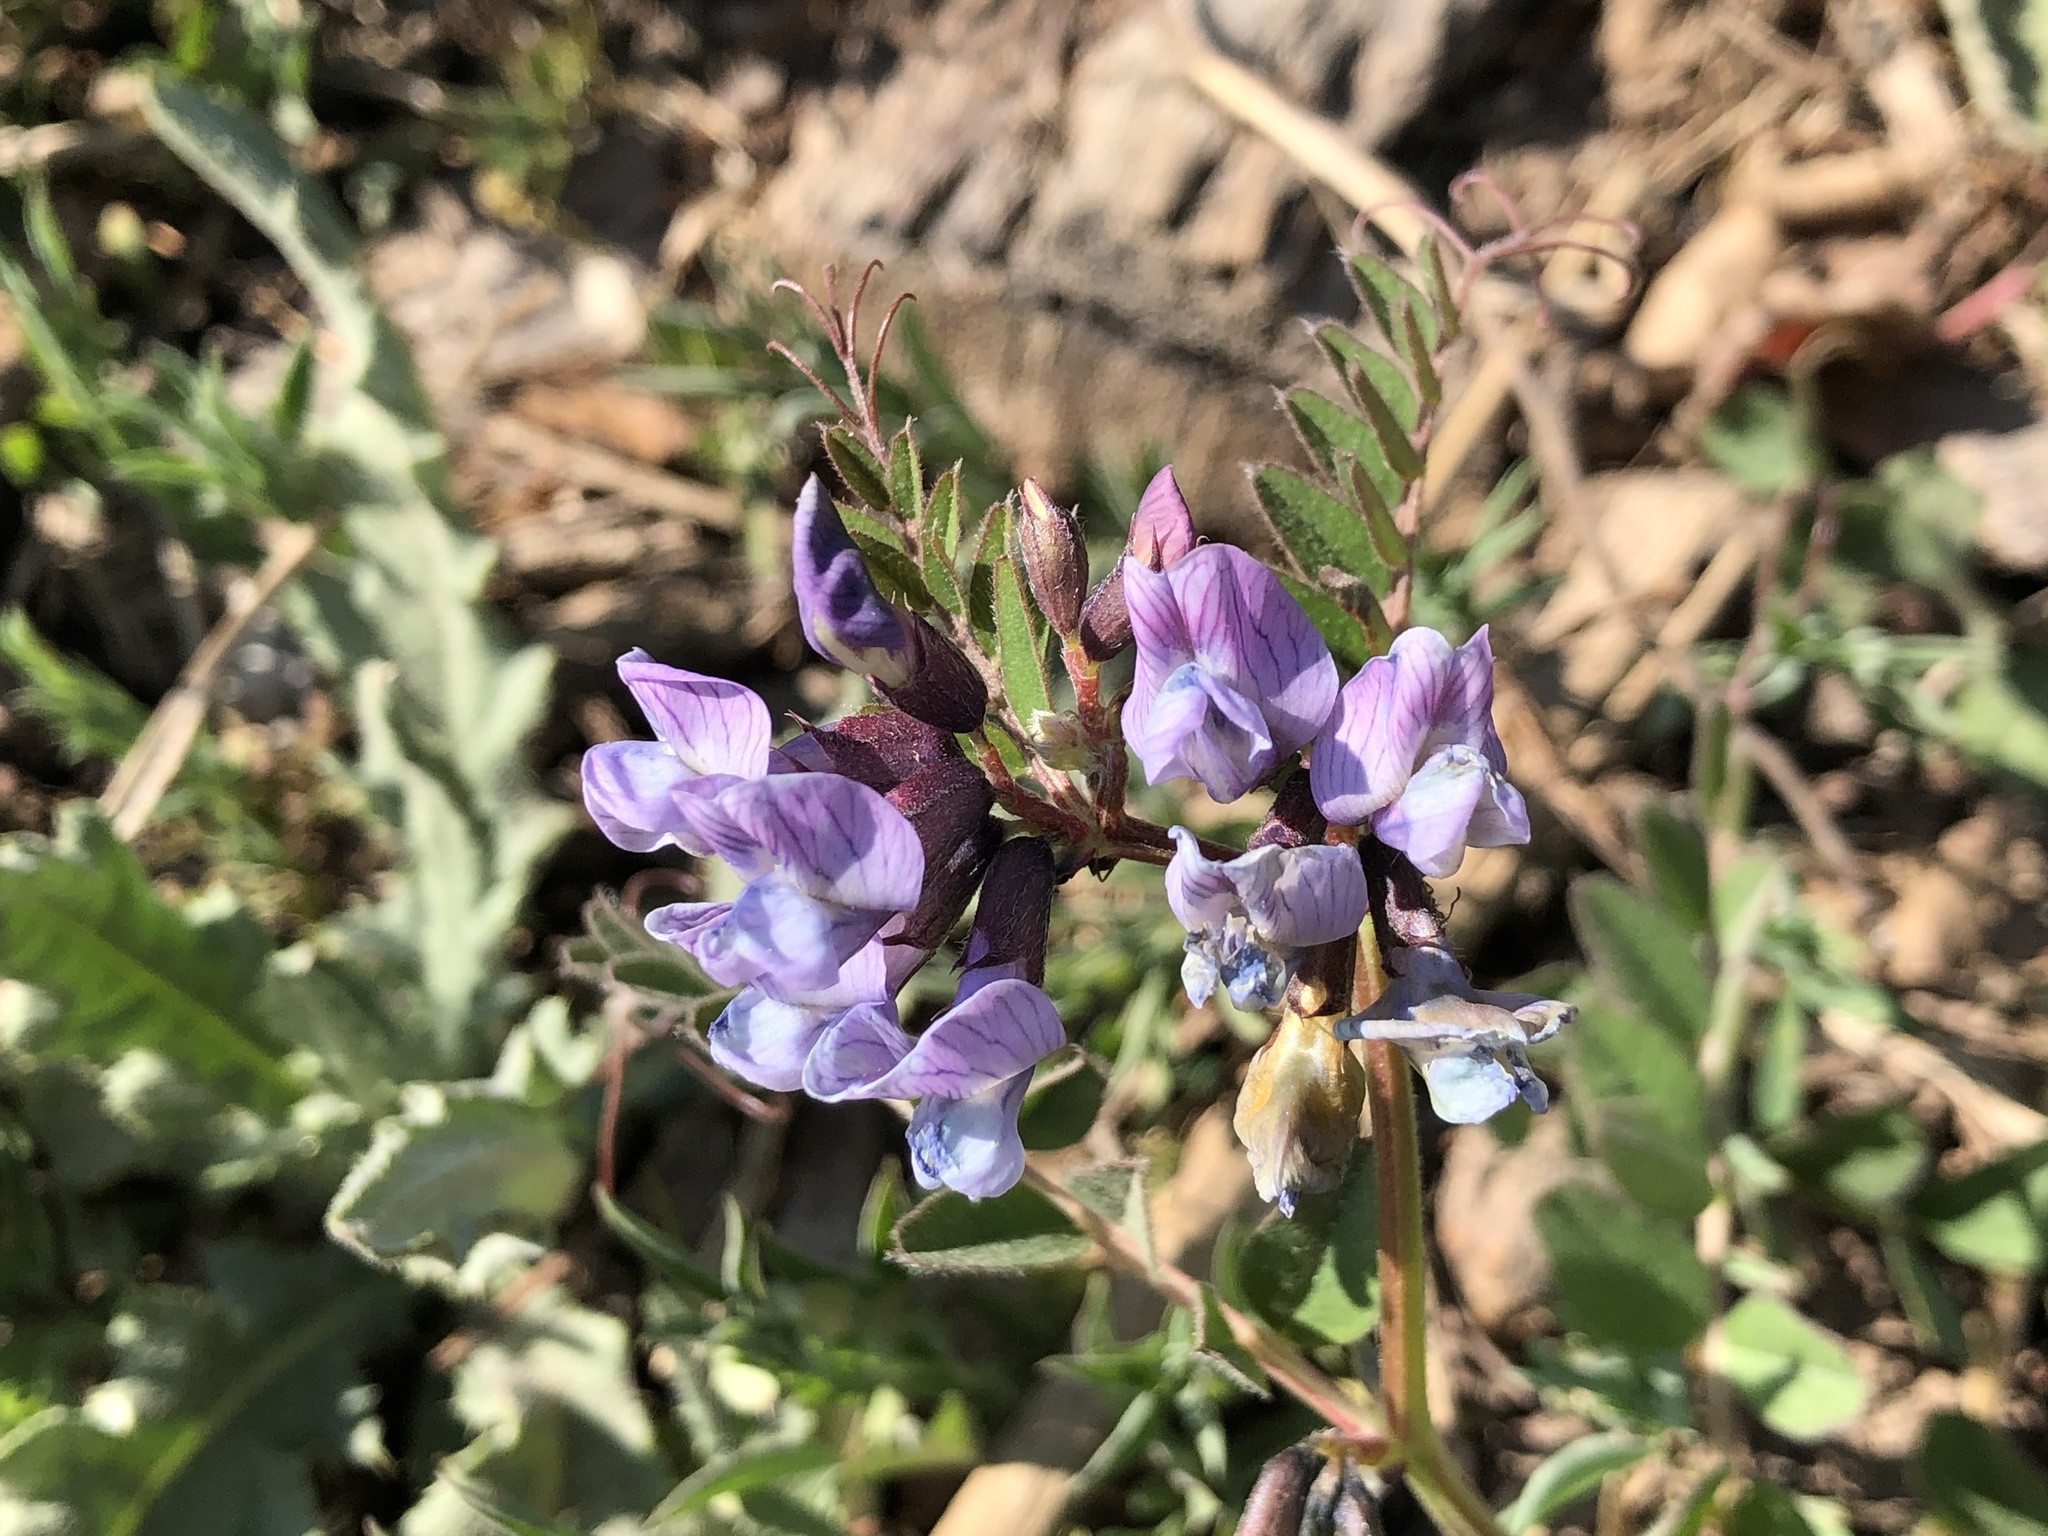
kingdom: Plantae
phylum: Tracheophyta
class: Magnoliopsida
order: Fabales
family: Fabaceae
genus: Vicia
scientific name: Vicia sepium
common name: Bush vetch
